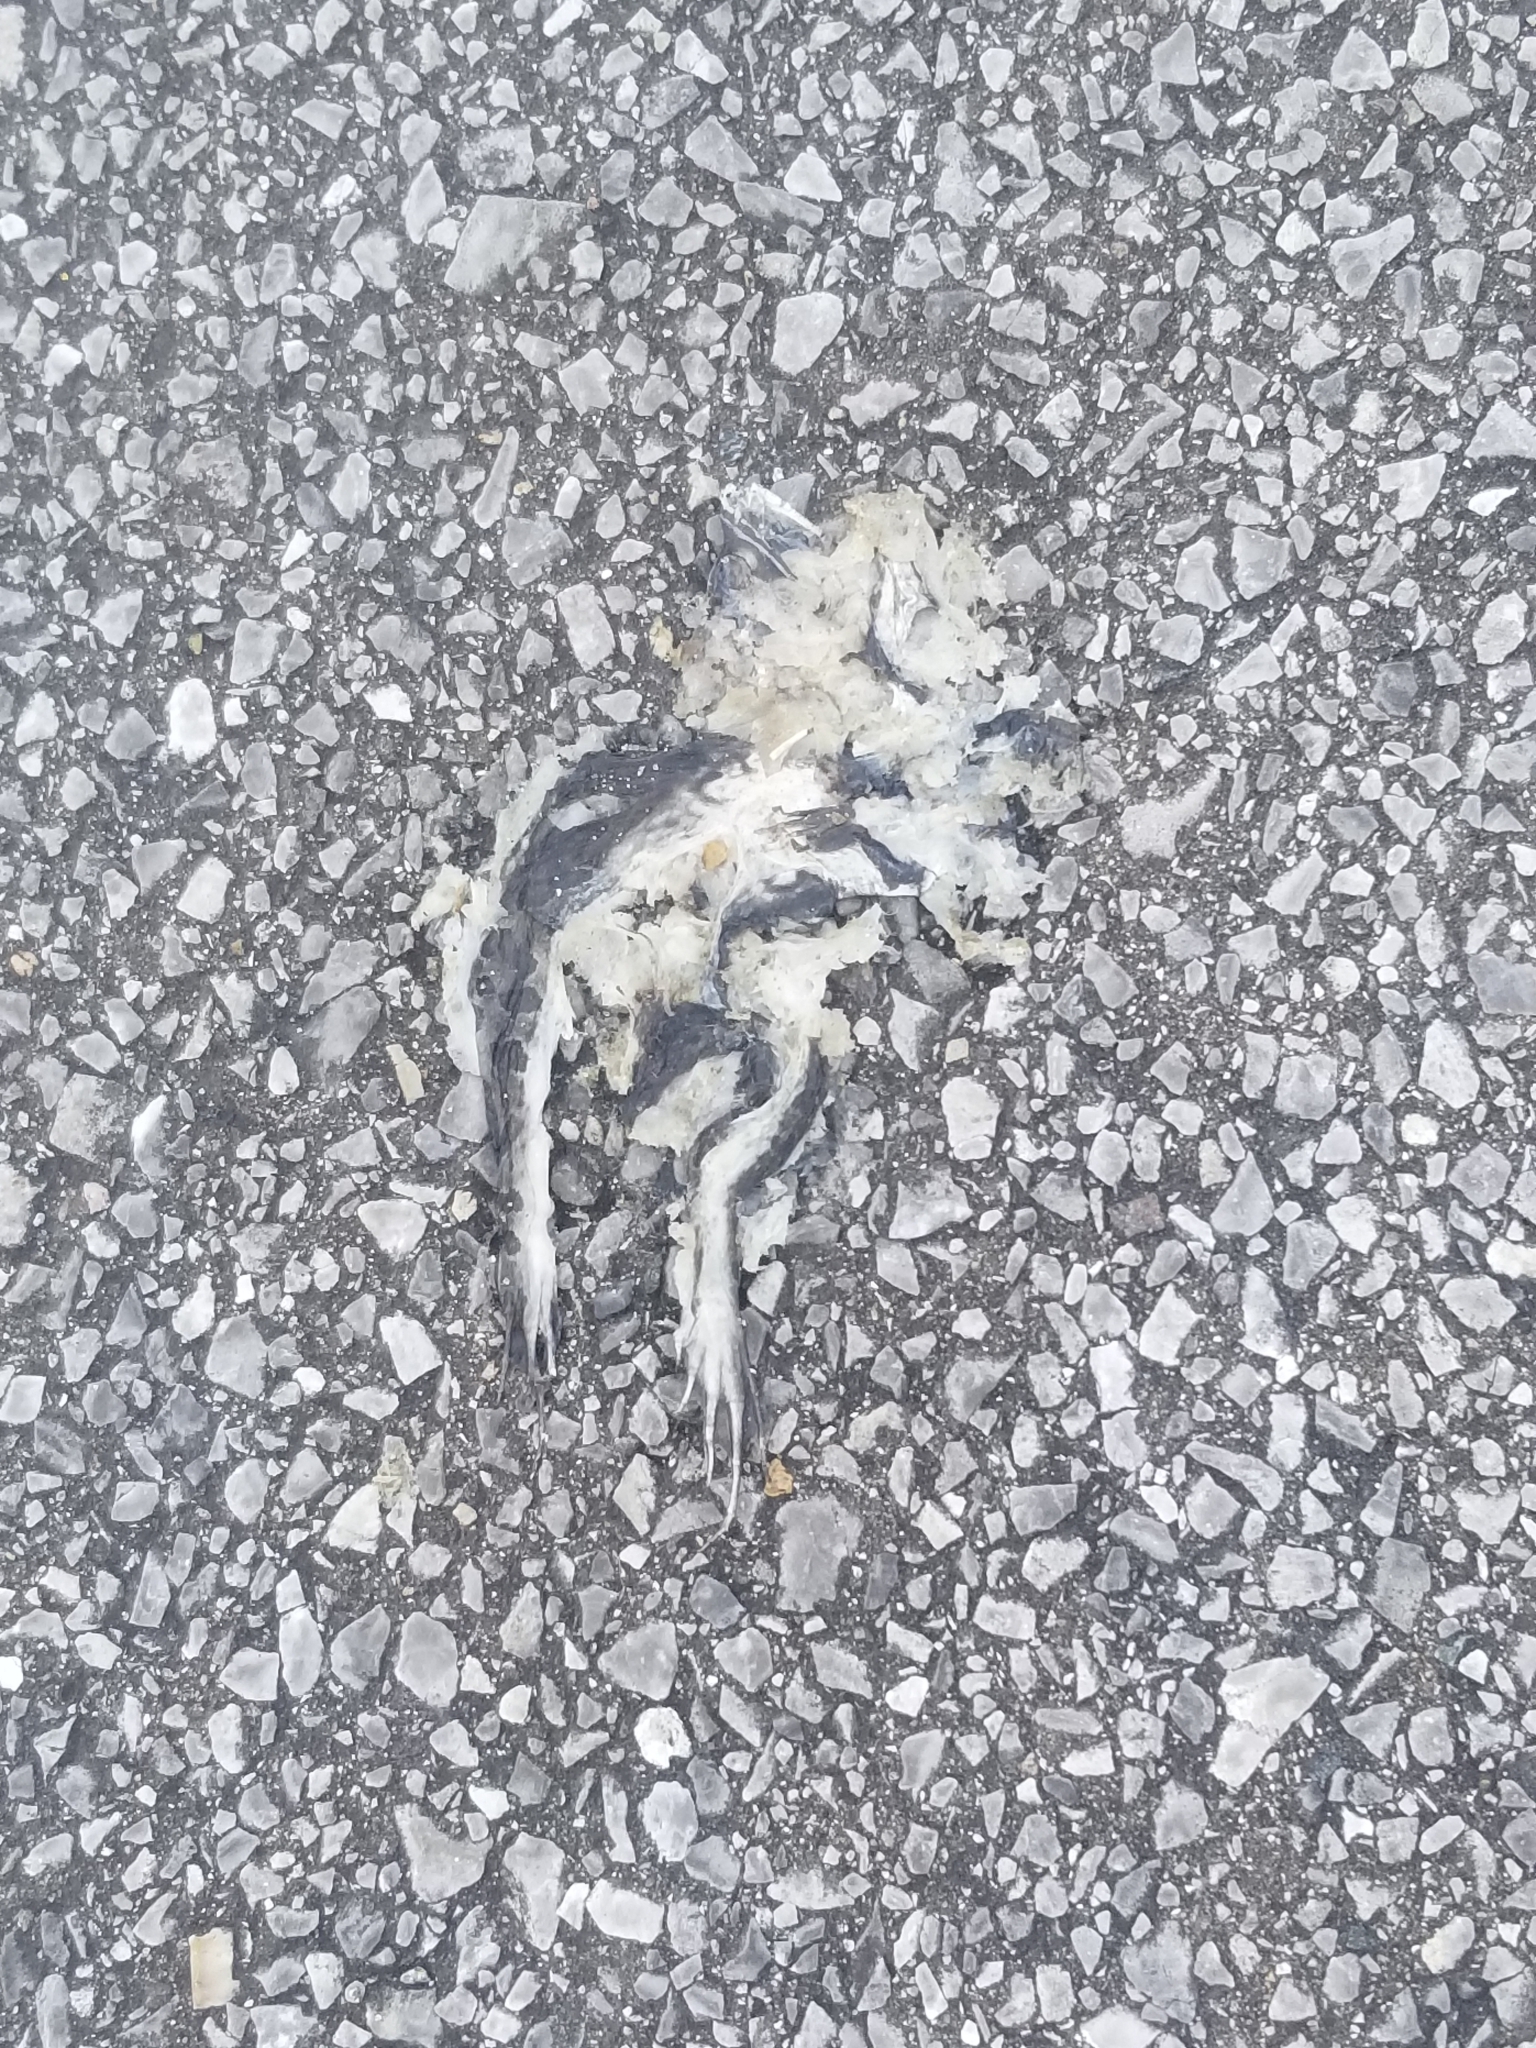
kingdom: Animalia
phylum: Chordata
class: Amphibia
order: Anura
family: Ranidae
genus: Lithobates
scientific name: Lithobates sphenocephalus
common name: Southern leopard frog
